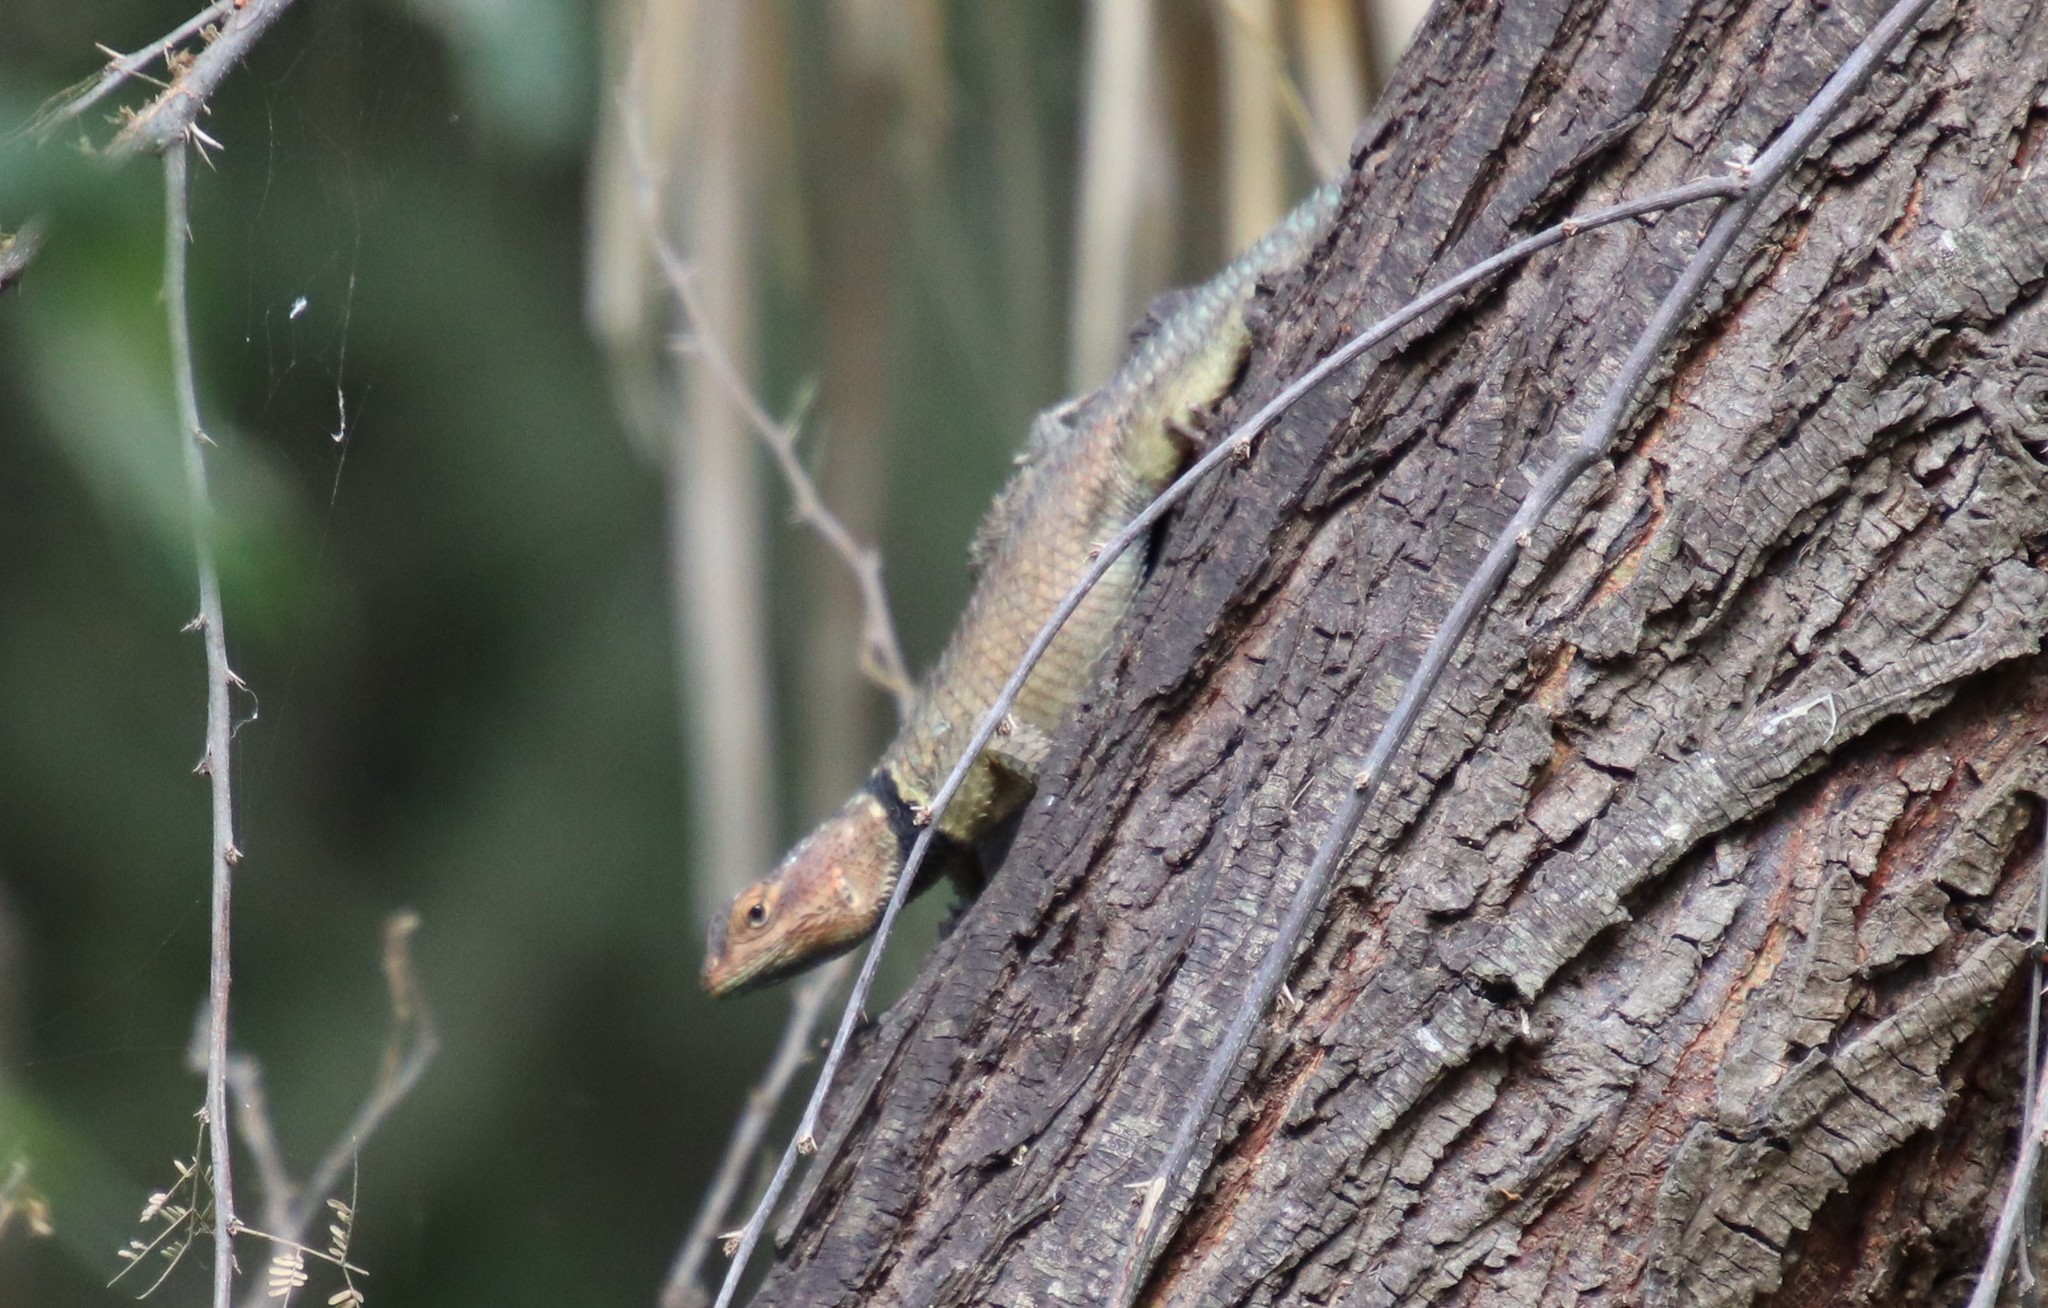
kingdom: Animalia
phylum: Chordata
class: Squamata
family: Phrynosomatidae
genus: Sceloporus
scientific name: Sceloporus cyanogenys
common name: Blue spiny lizard
